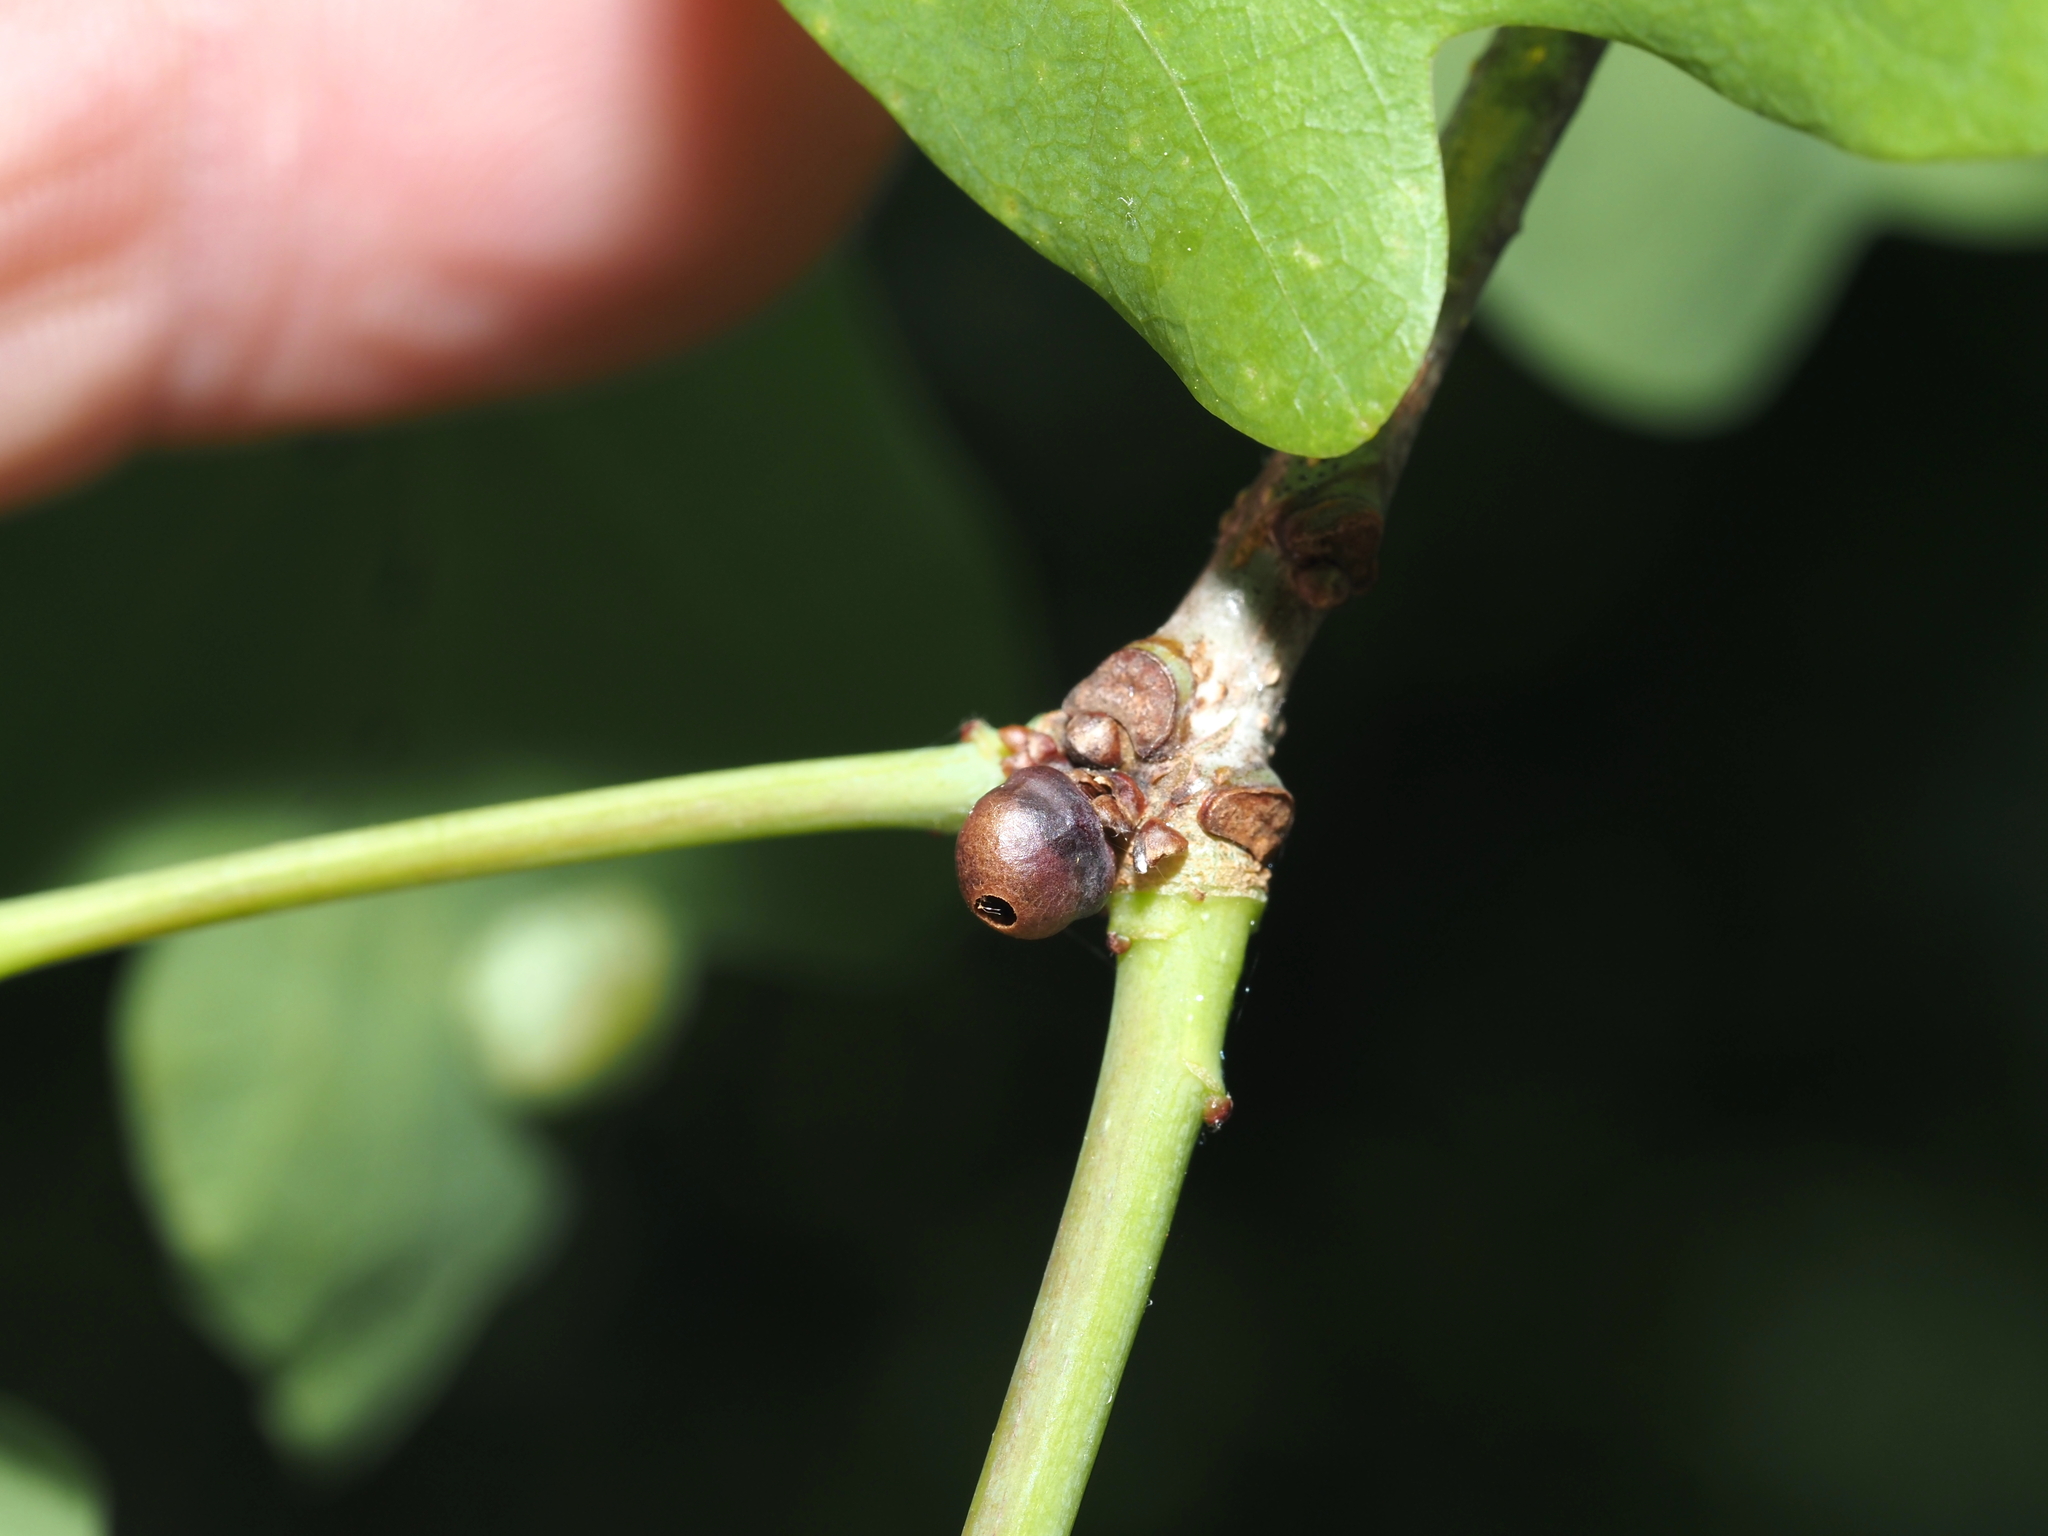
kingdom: Animalia
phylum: Arthropoda
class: Insecta
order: Hymenoptera
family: Cynipidae
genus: Neuroterus
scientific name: Neuroterus
